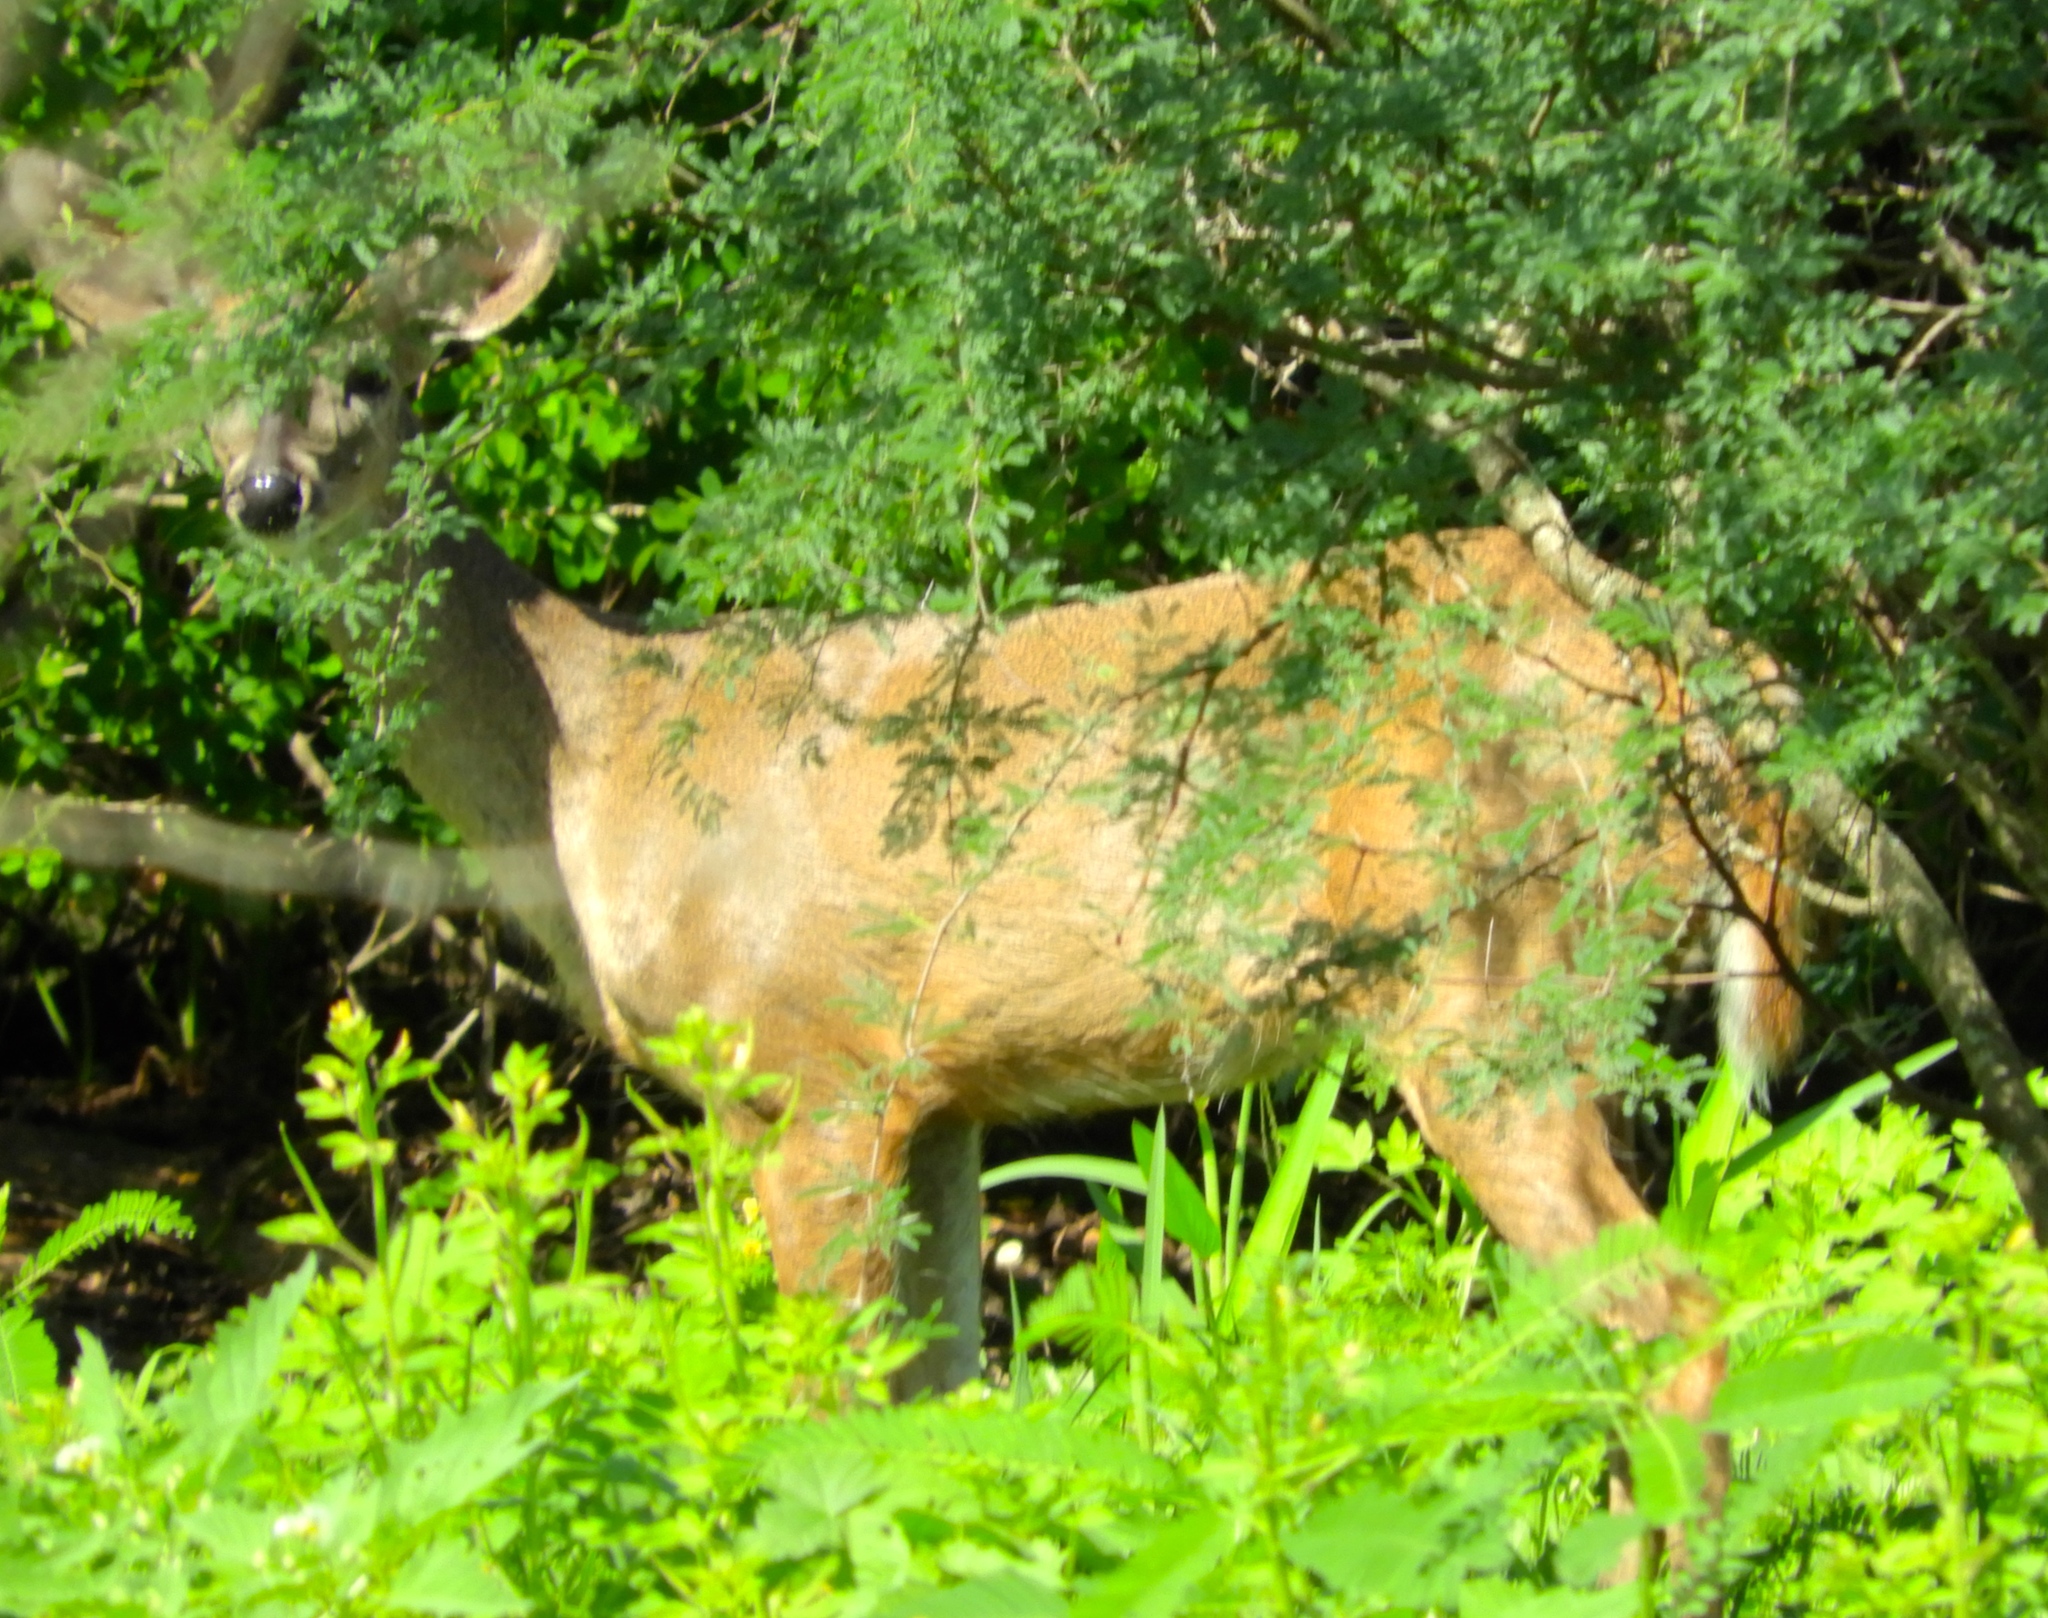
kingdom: Animalia
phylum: Chordata
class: Mammalia
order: Artiodactyla
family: Cervidae
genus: Odocoileus
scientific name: Odocoileus virginianus
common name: White-tailed deer
